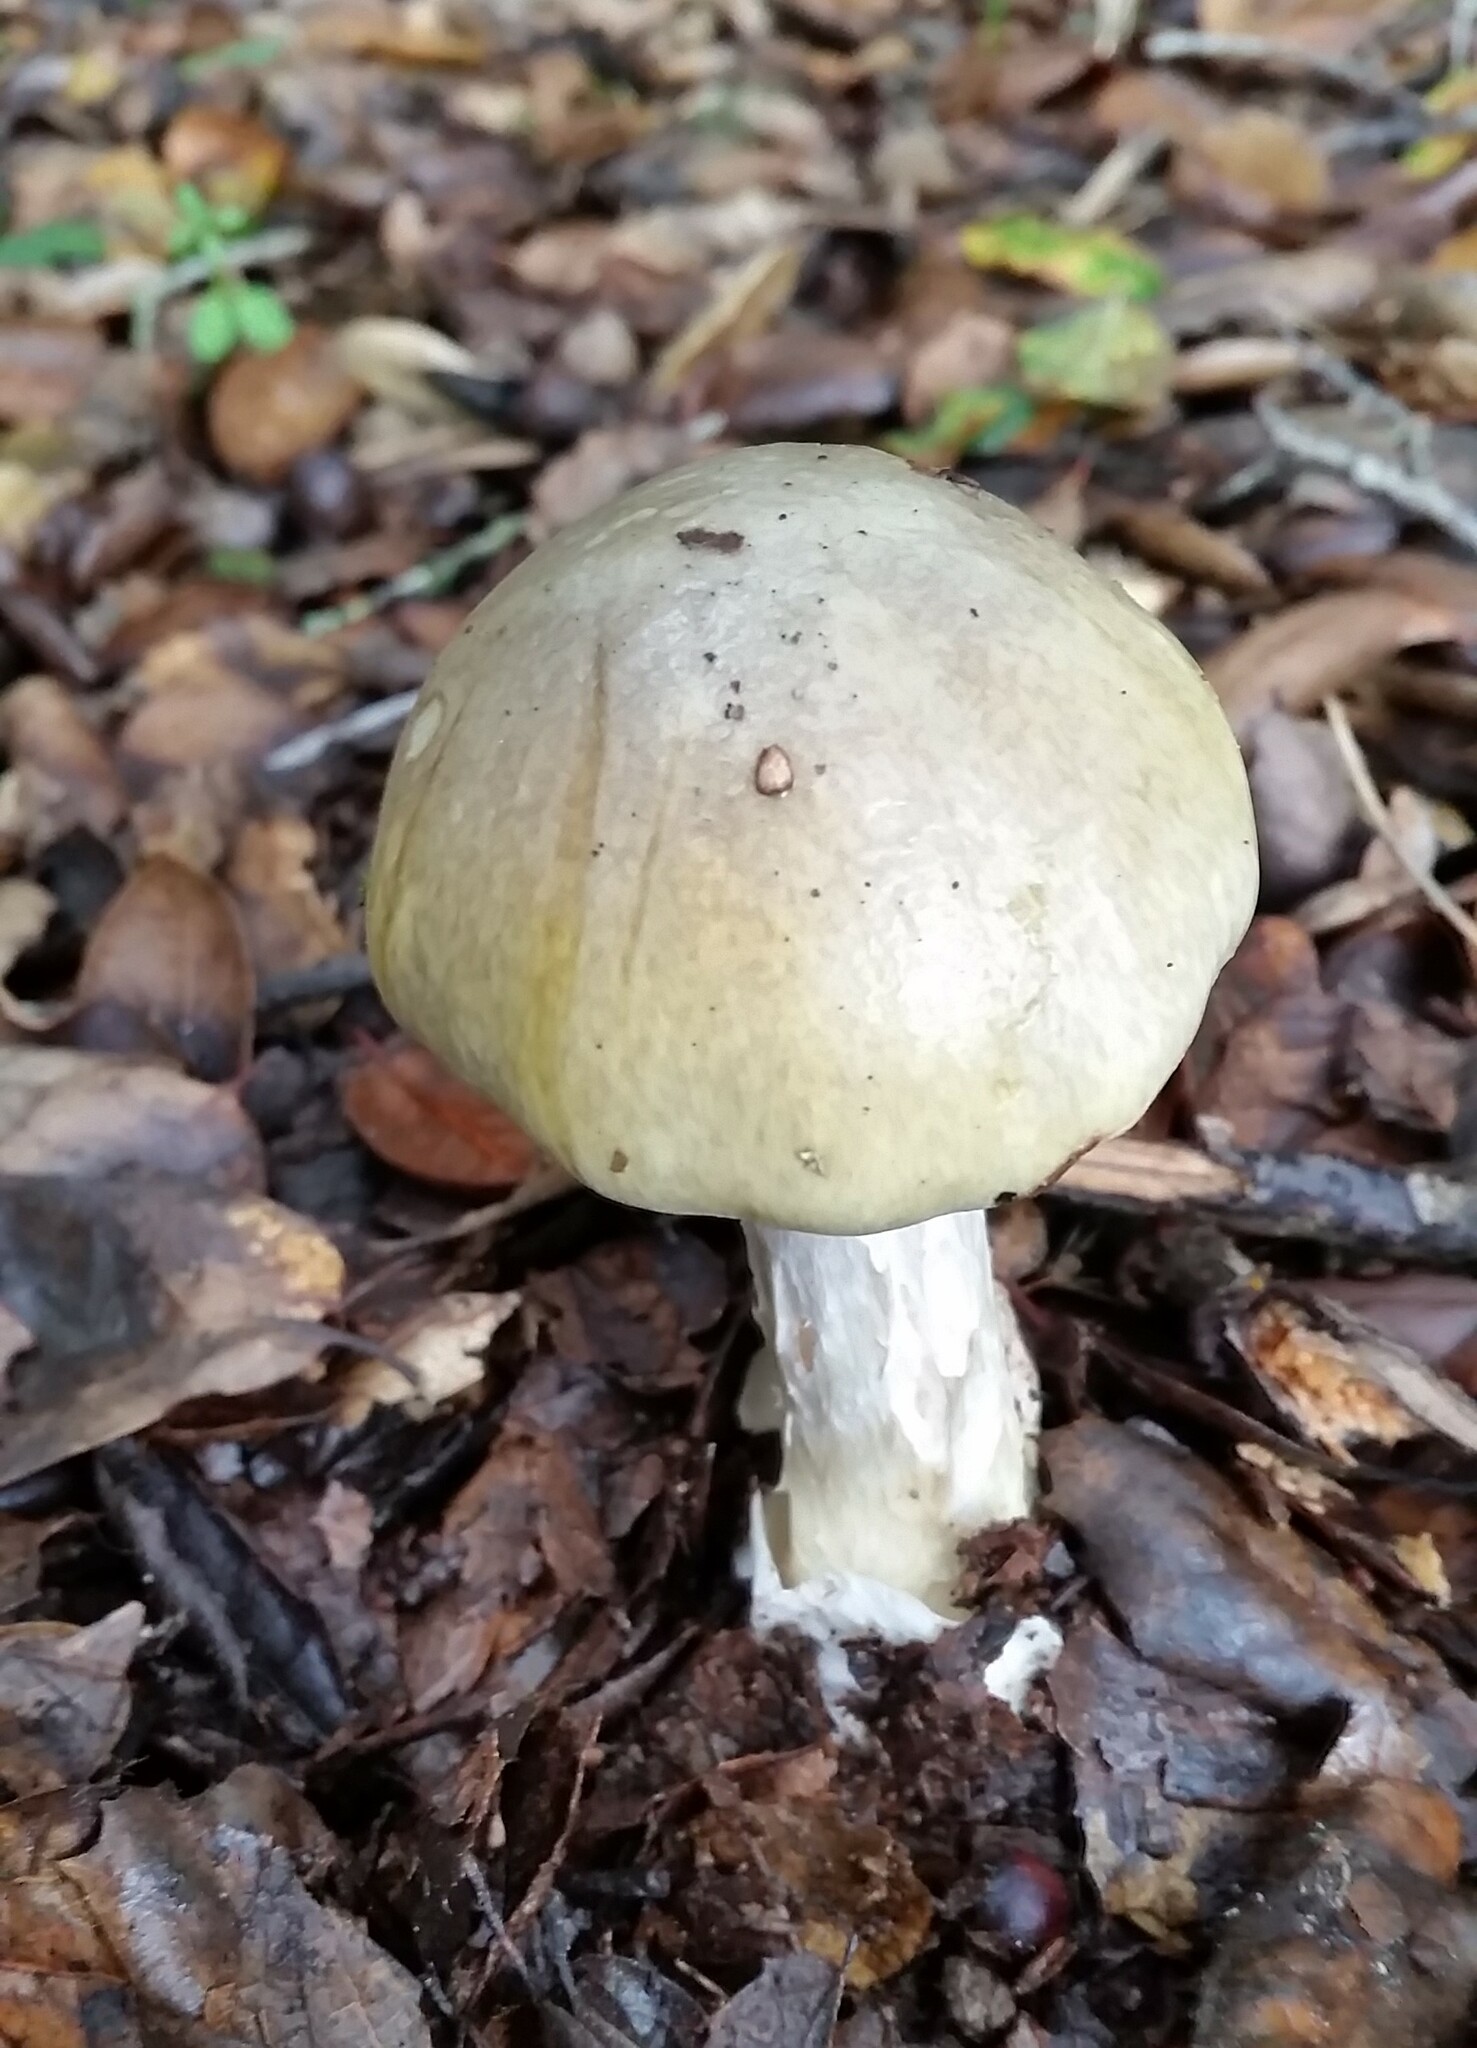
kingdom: Fungi
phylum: Basidiomycota
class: Agaricomycetes
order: Agaricales
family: Amanitaceae
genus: Amanita
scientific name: Amanita phalloides
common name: Death cap
